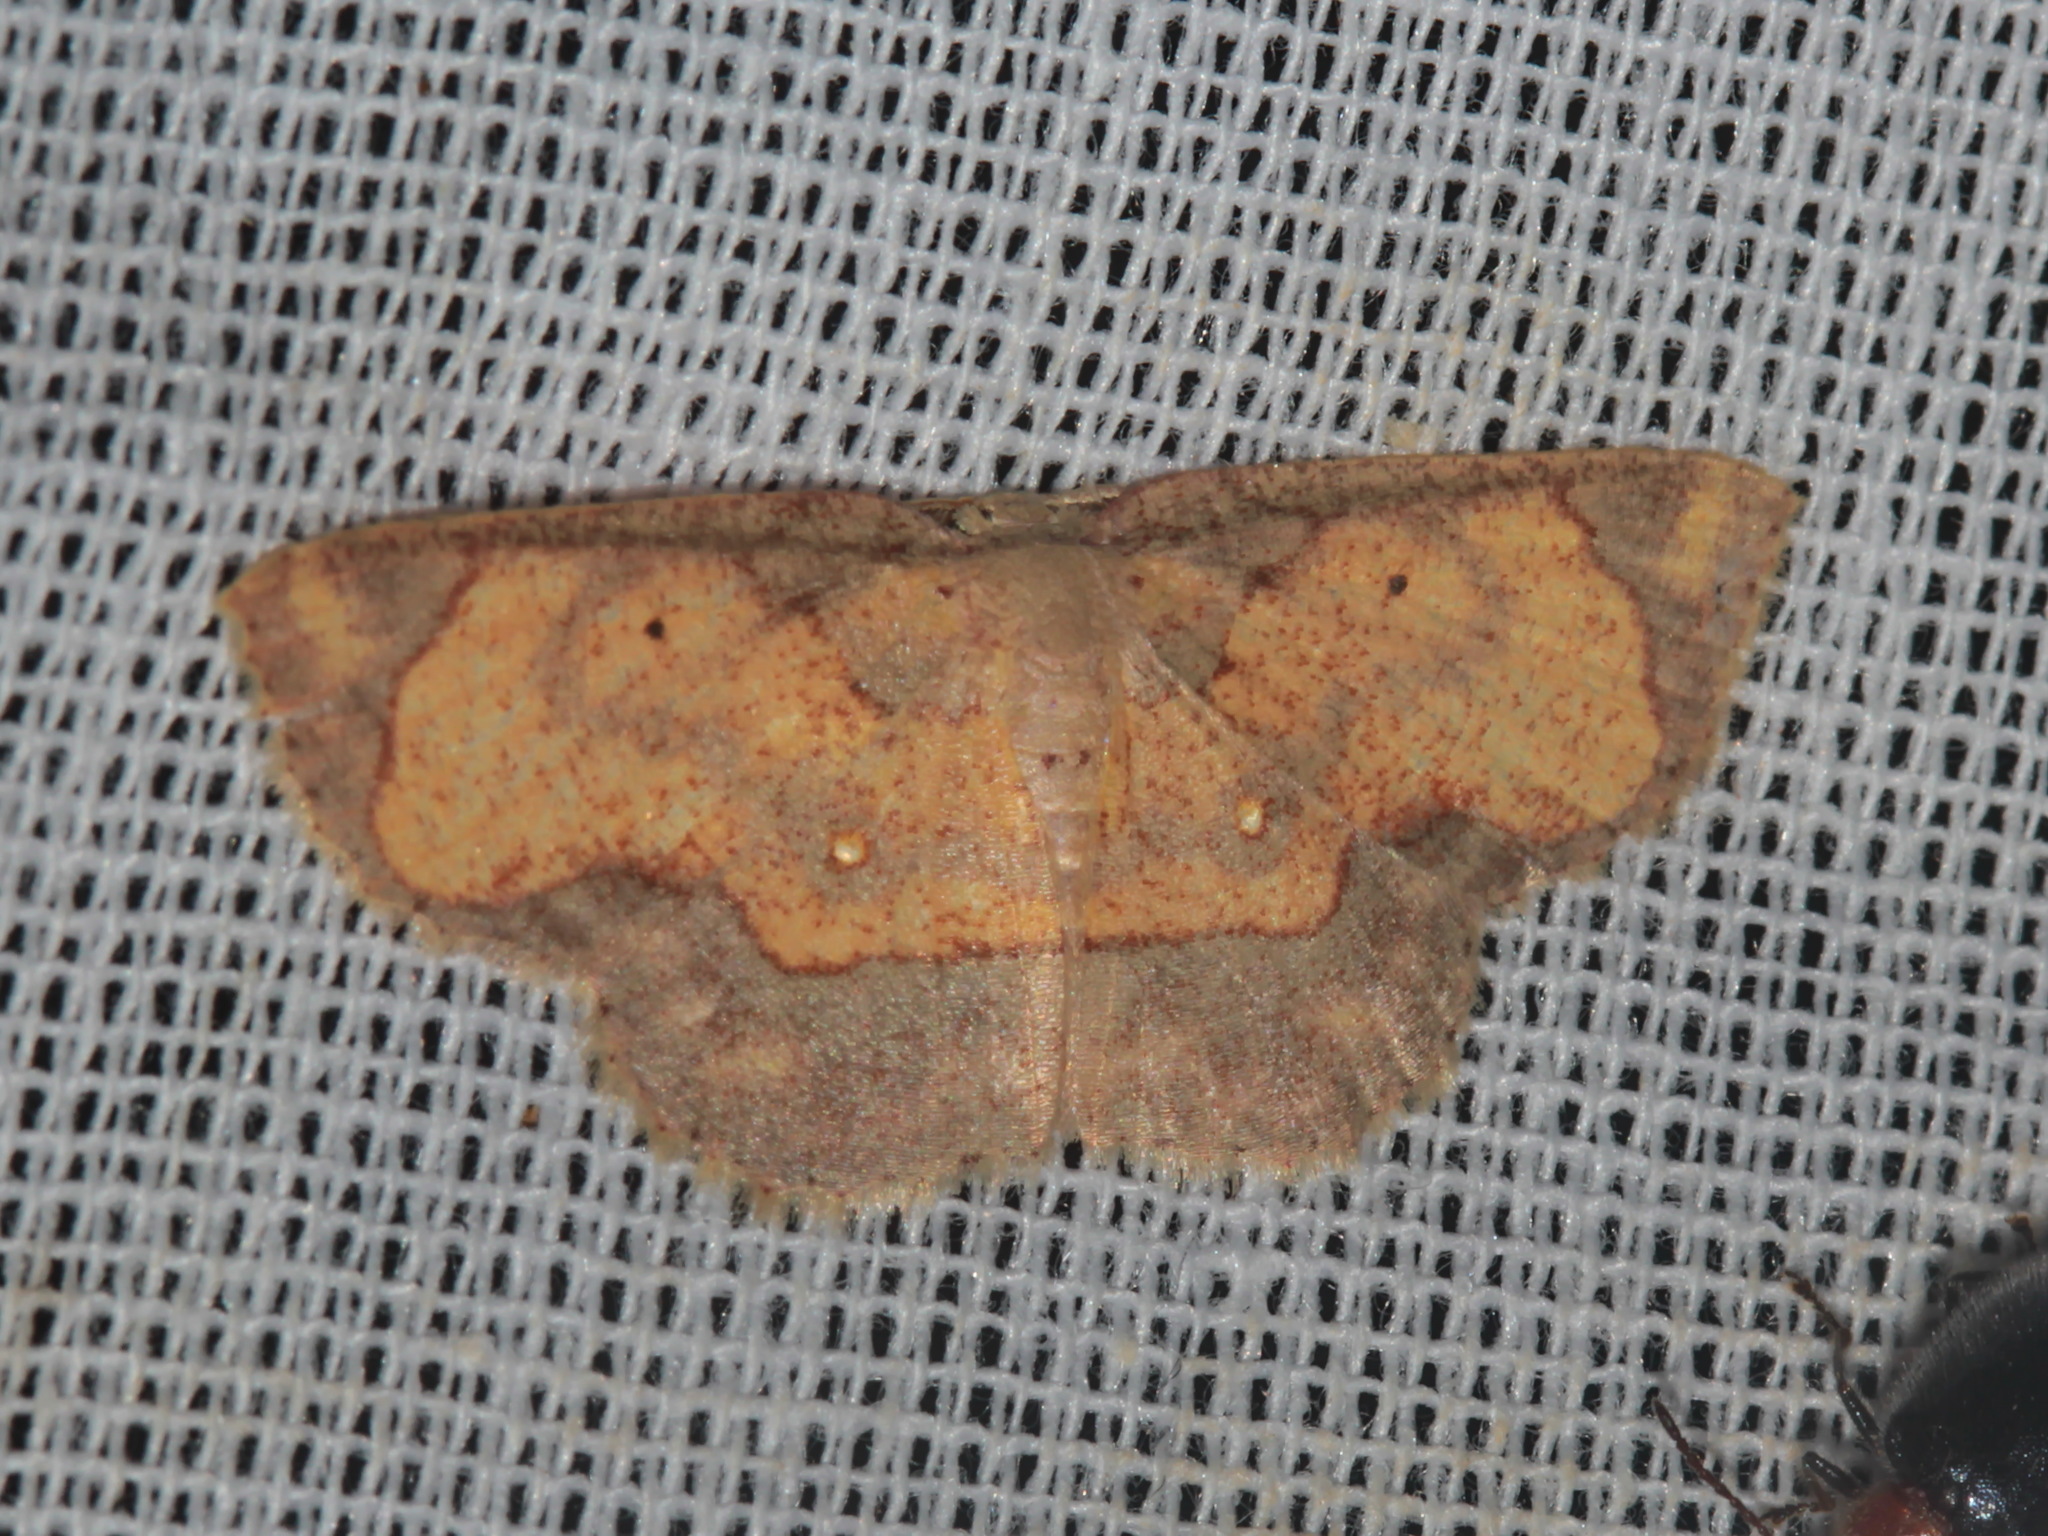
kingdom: Animalia
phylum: Arthropoda
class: Insecta
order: Lepidoptera
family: Geometridae
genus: Chrysocraspeda
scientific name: Chrysocraspeda marginata
